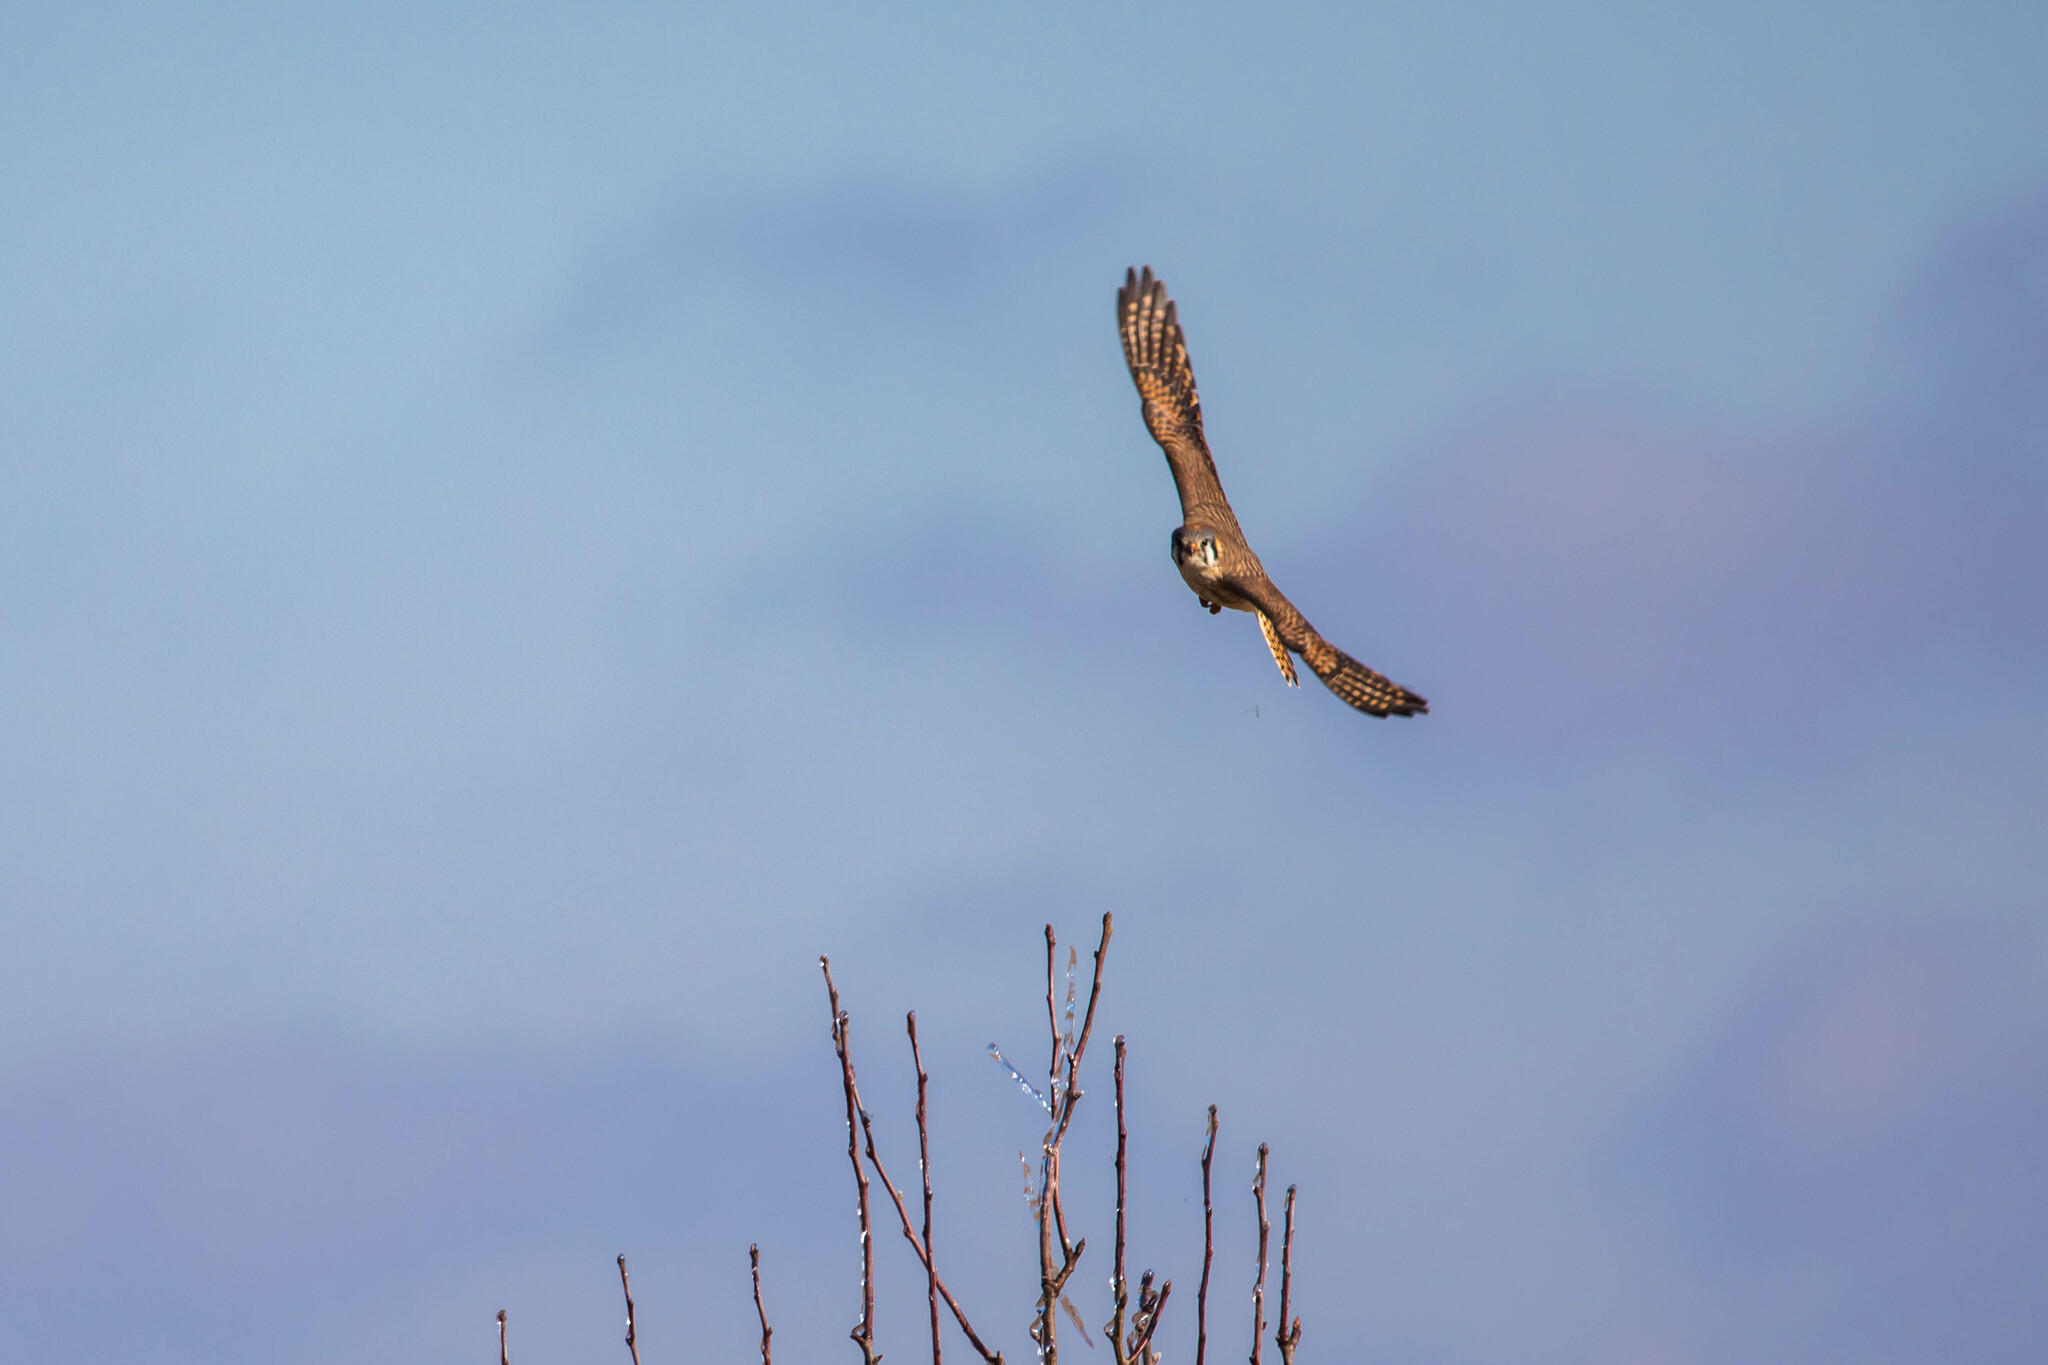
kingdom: Animalia
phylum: Chordata
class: Aves
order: Falconiformes
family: Falconidae
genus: Falco
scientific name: Falco sparverius
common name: American kestrel
